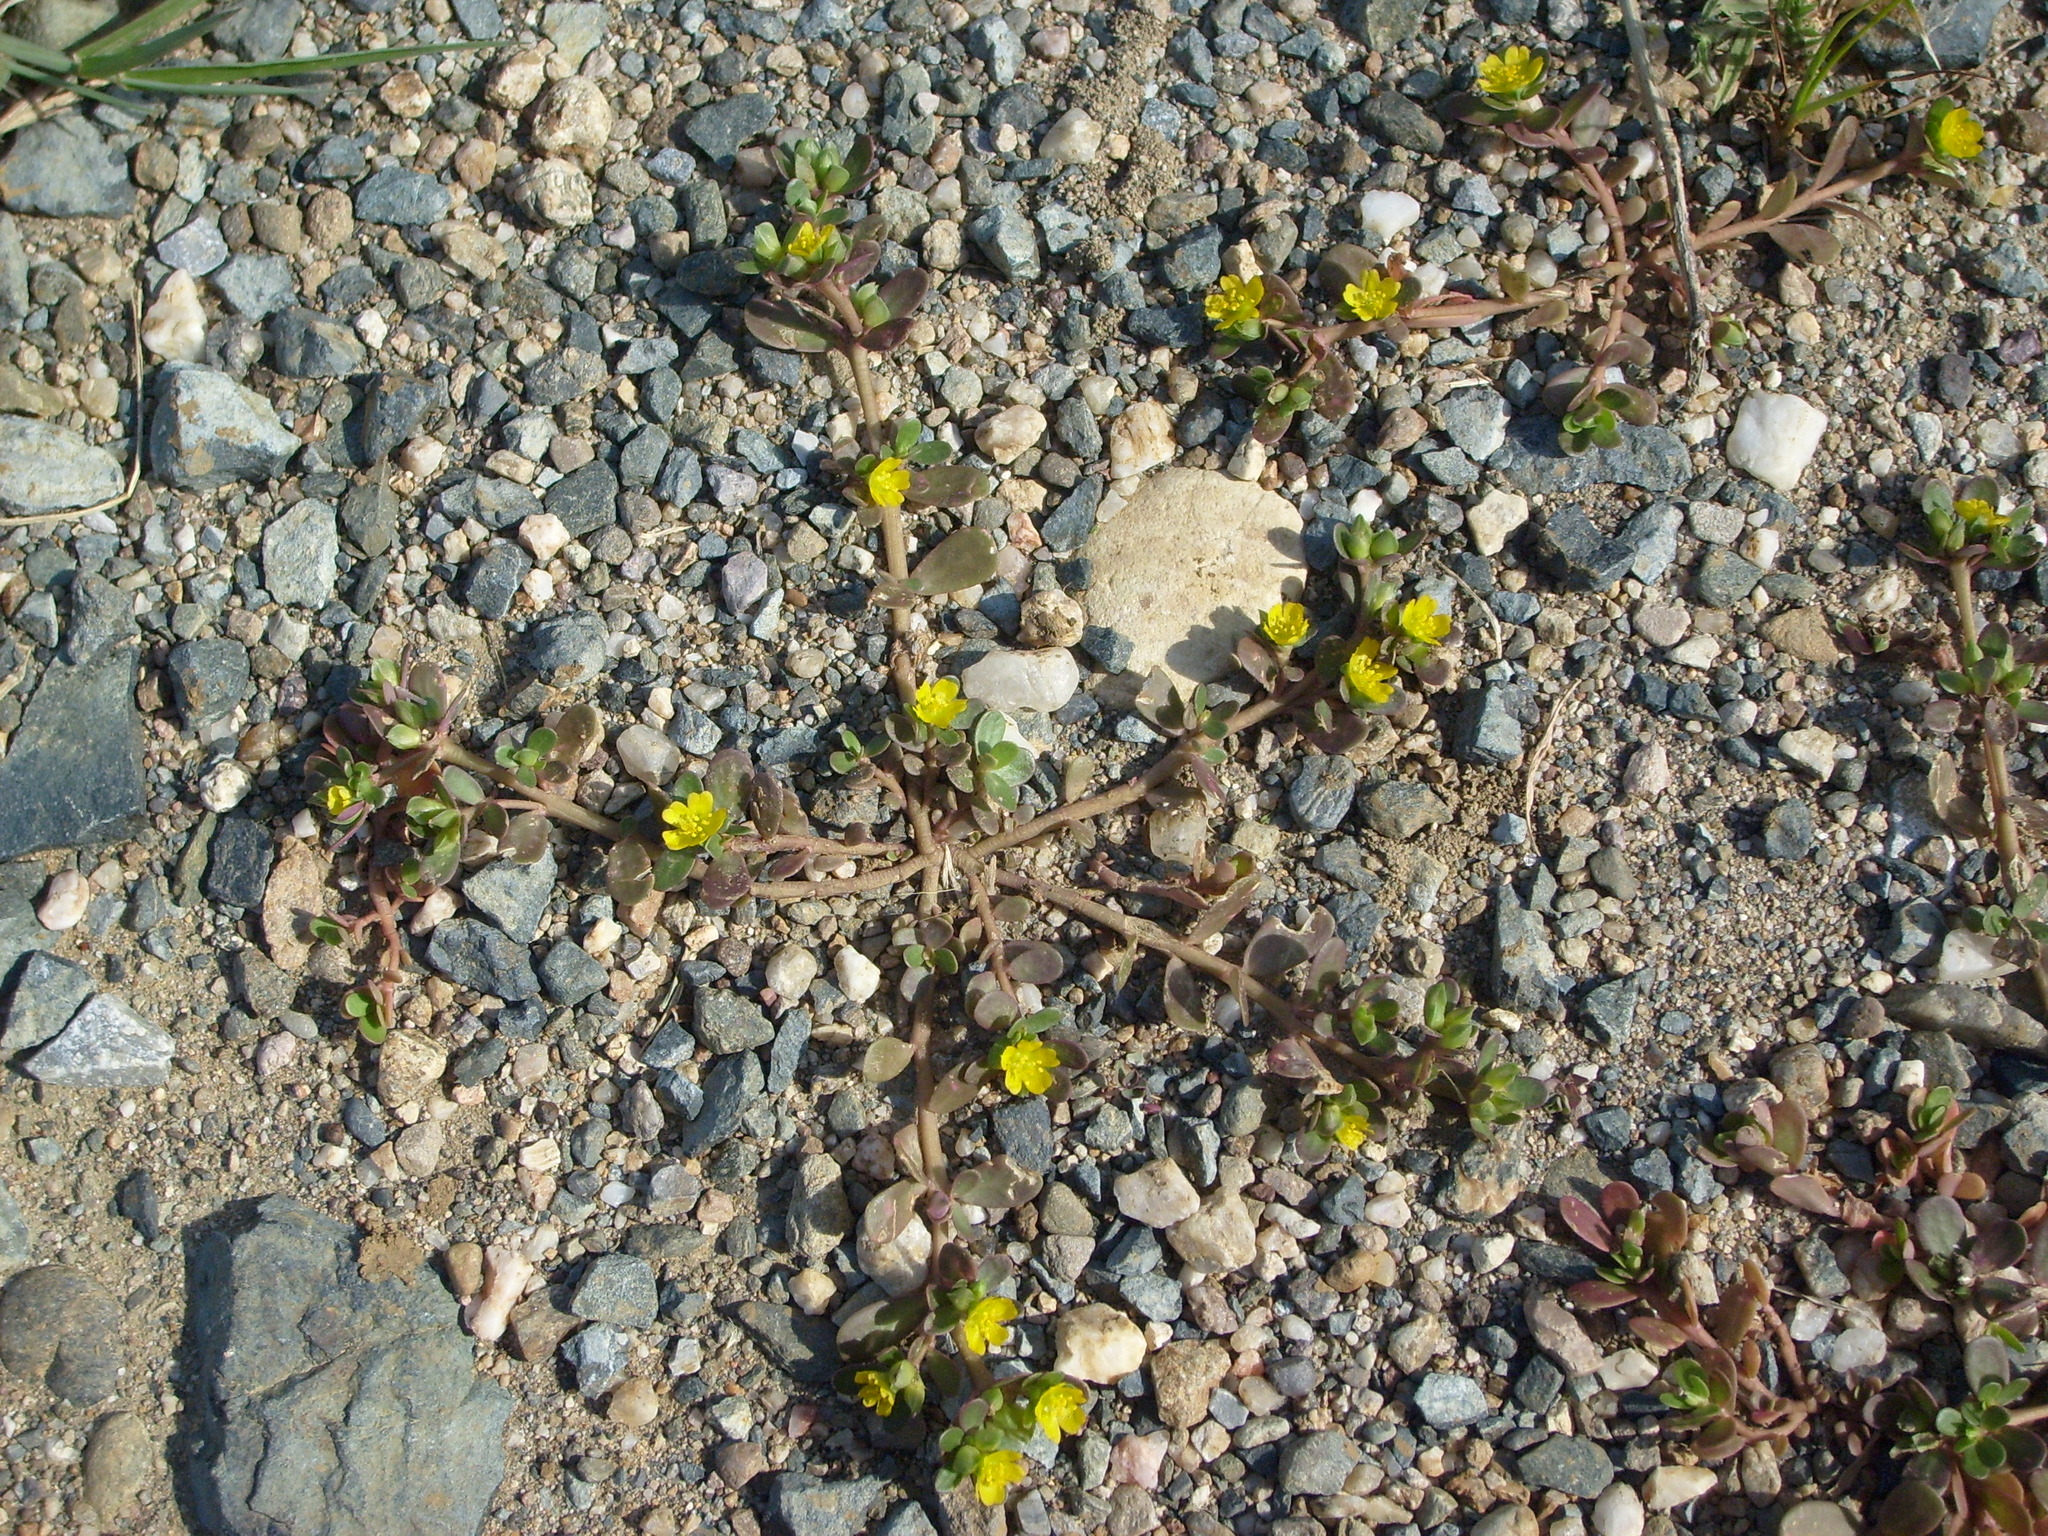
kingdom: Plantae
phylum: Tracheophyta
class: Magnoliopsida
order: Caryophyllales
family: Portulacaceae
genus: Portulaca
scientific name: Portulaca oleracea
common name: Common purslane
